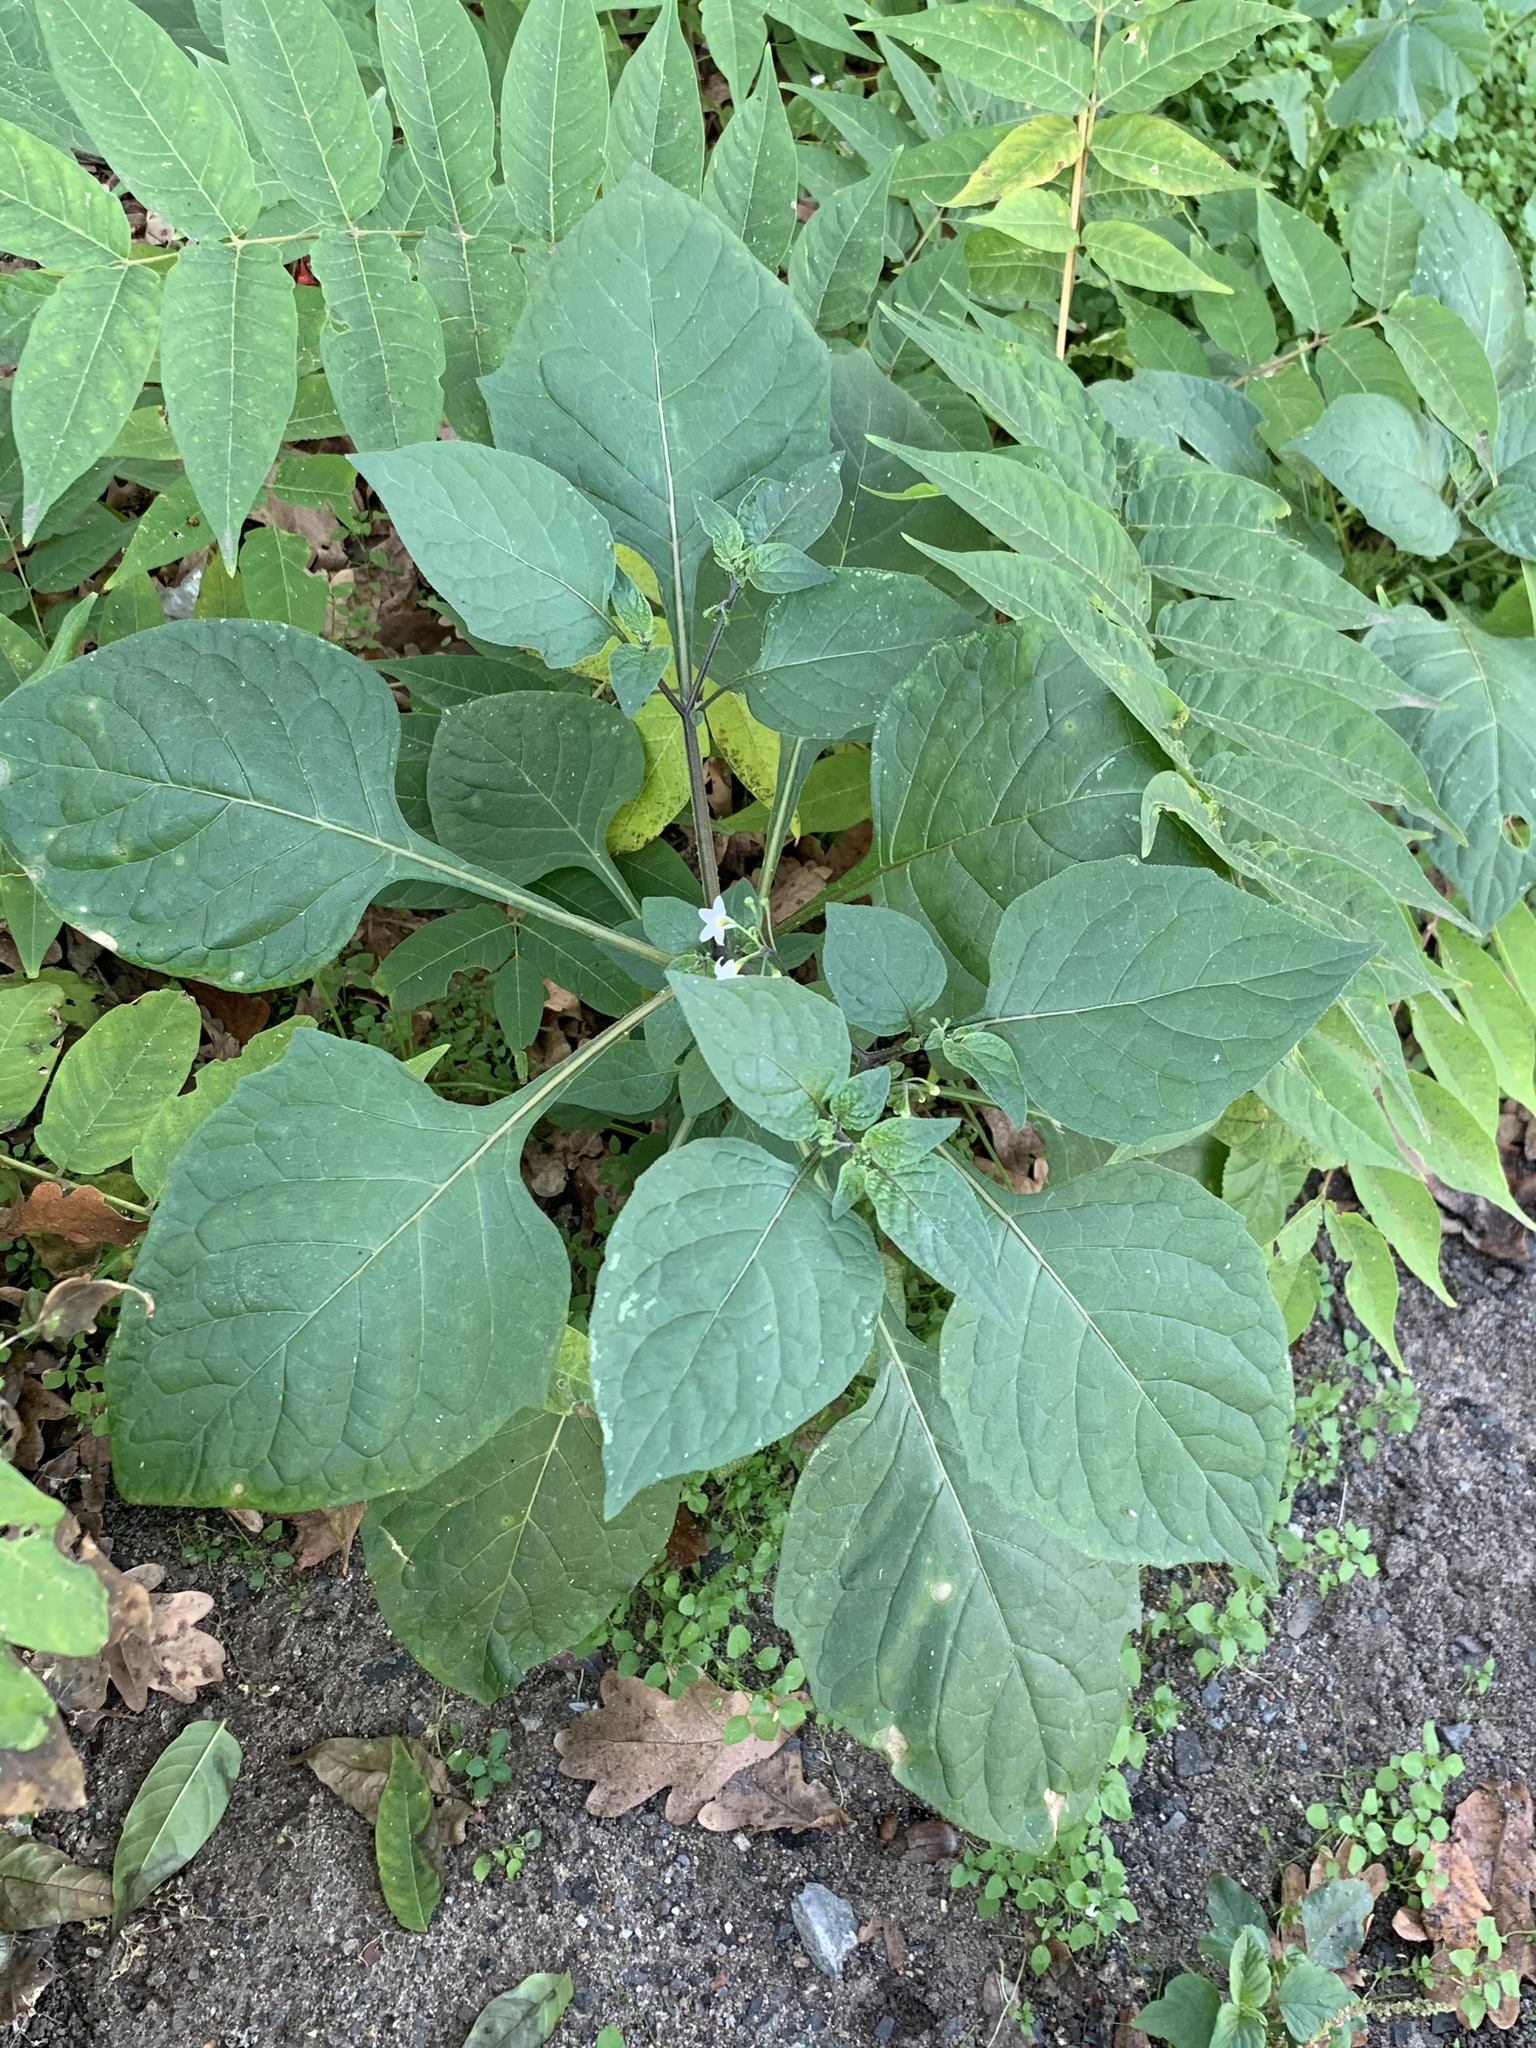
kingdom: Plantae
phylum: Tracheophyta
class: Magnoliopsida
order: Solanales
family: Solanaceae
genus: Solanum
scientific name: Solanum nigrum
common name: Black nightshade
